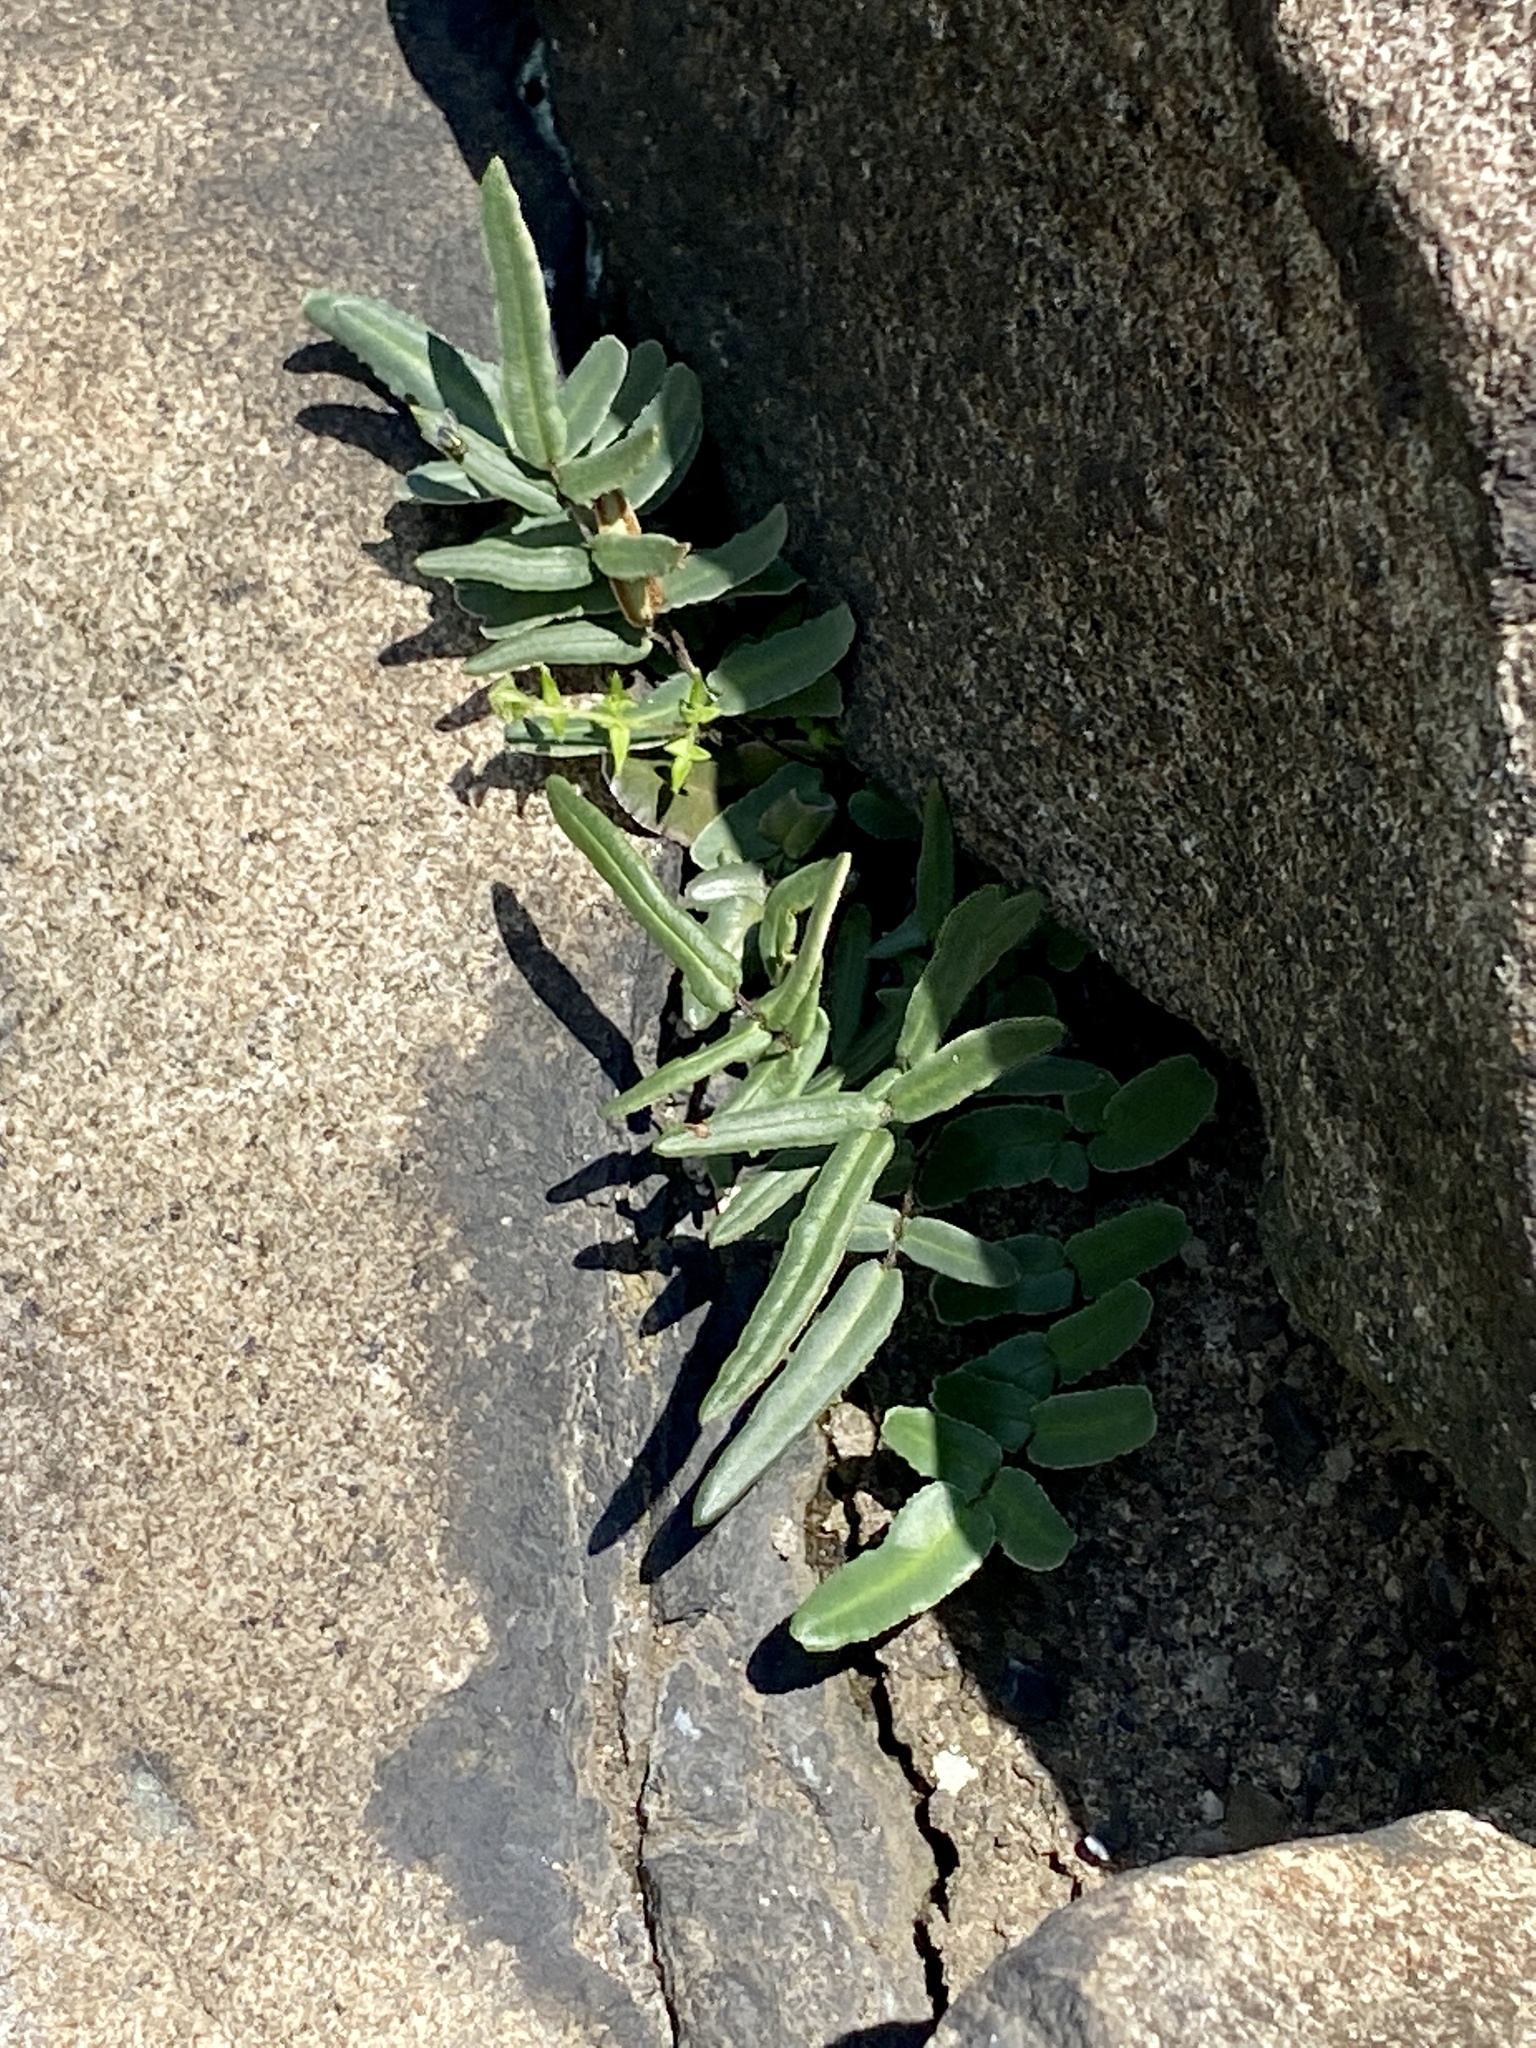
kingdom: Plantae
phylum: Tracheophyta
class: Polypodiopsida
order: Polypodiales
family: Pteridaceae
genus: Pellaea
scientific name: Pellaea atropurpurea
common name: Hairy cliffbrake
